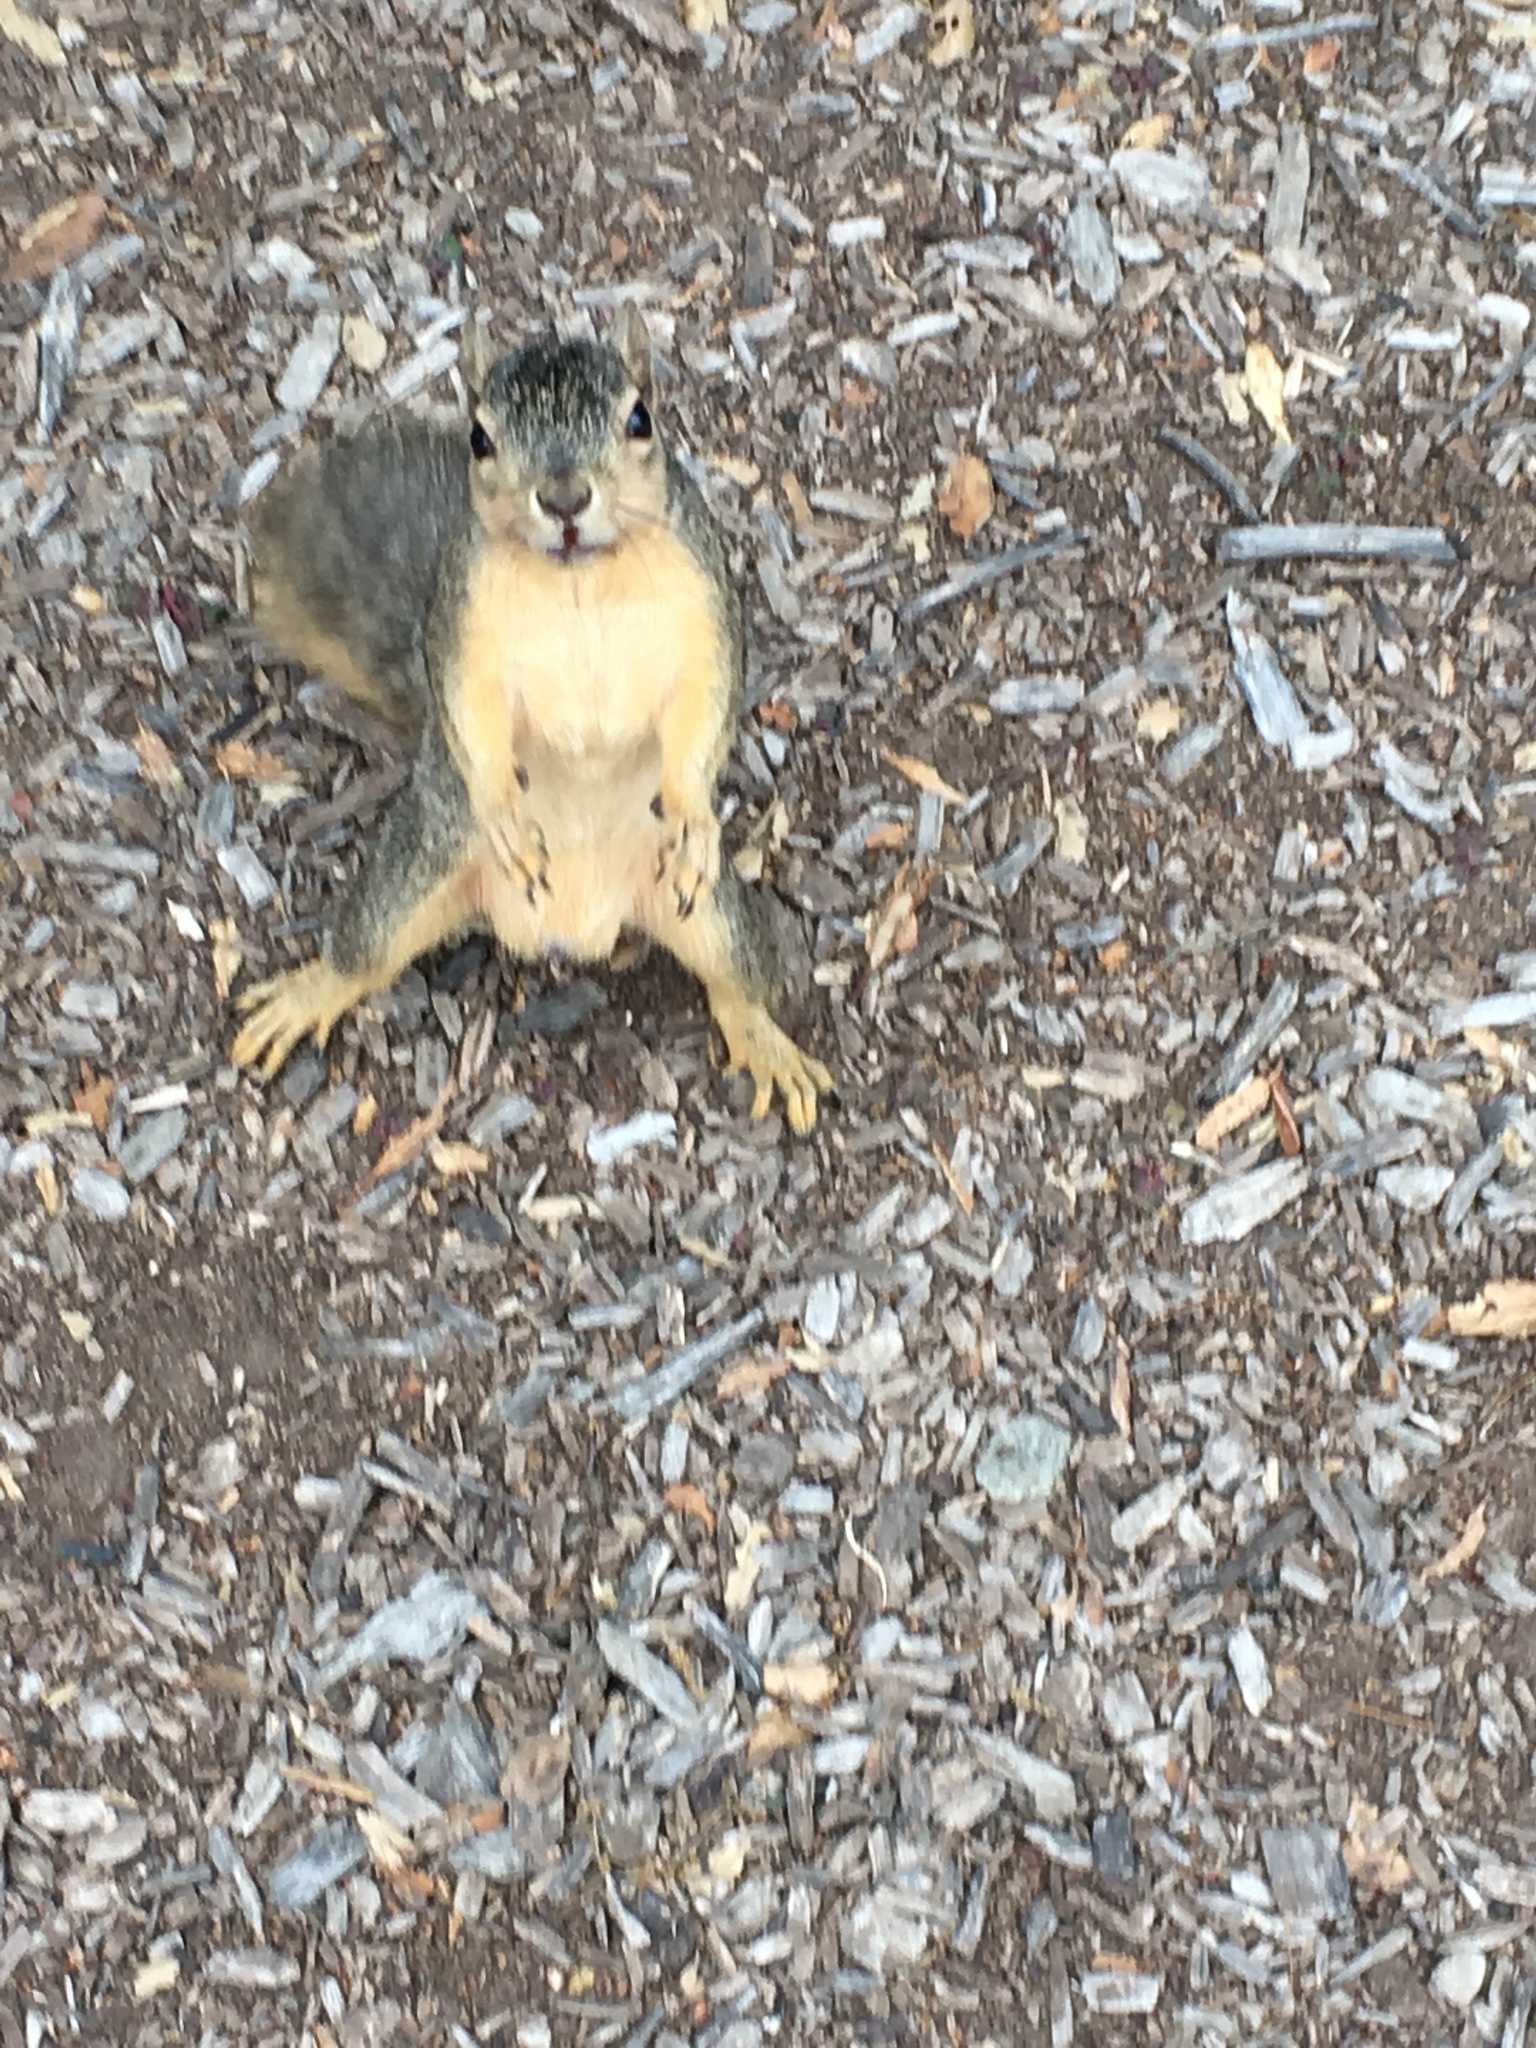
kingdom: Animalia
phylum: Chordata
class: Mammalia
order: Rodentia
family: Sciuridae
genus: Sciurus
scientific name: Sciurus niger
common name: Fox squirrel
